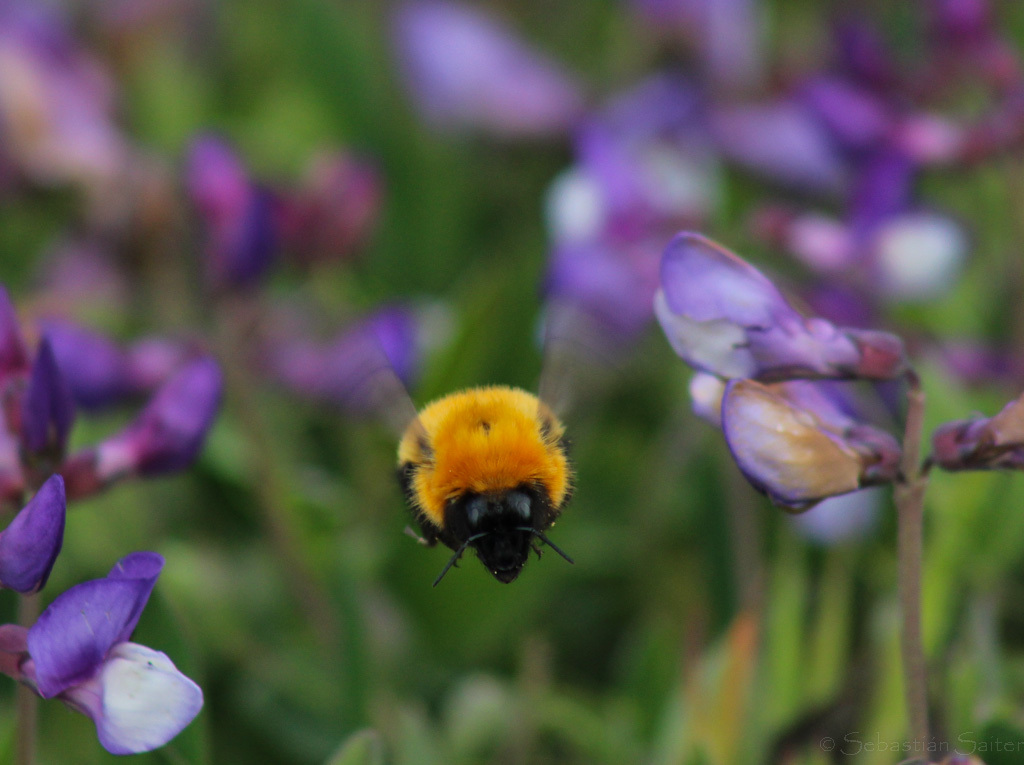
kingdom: Animalia
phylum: Arthropoda
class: Insecta
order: Hymenoptera
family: Apidae
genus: Bombus
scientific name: Bombus dahlbomii
